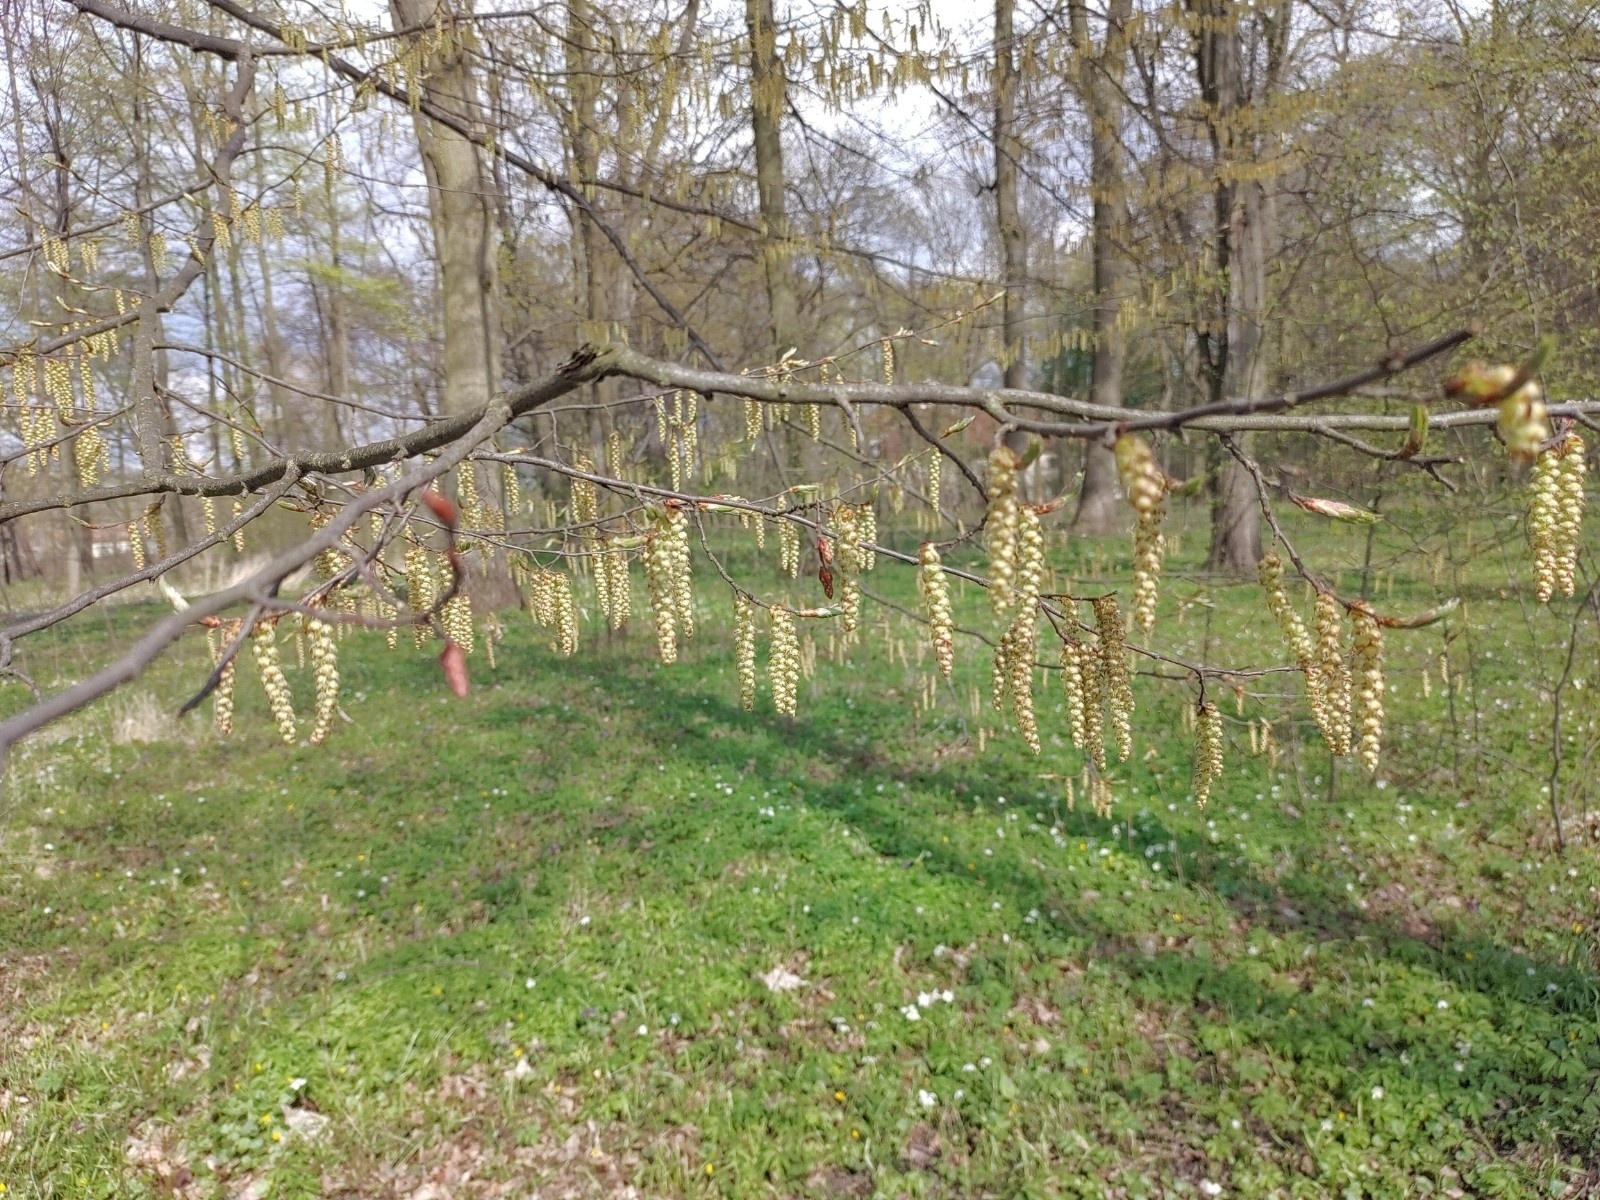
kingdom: Plantae
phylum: Tracheophyta
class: Magnoliopsida
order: Fagales
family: Betulaceae
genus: Carpinus
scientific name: Carpinus betulus
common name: Hornbeam
